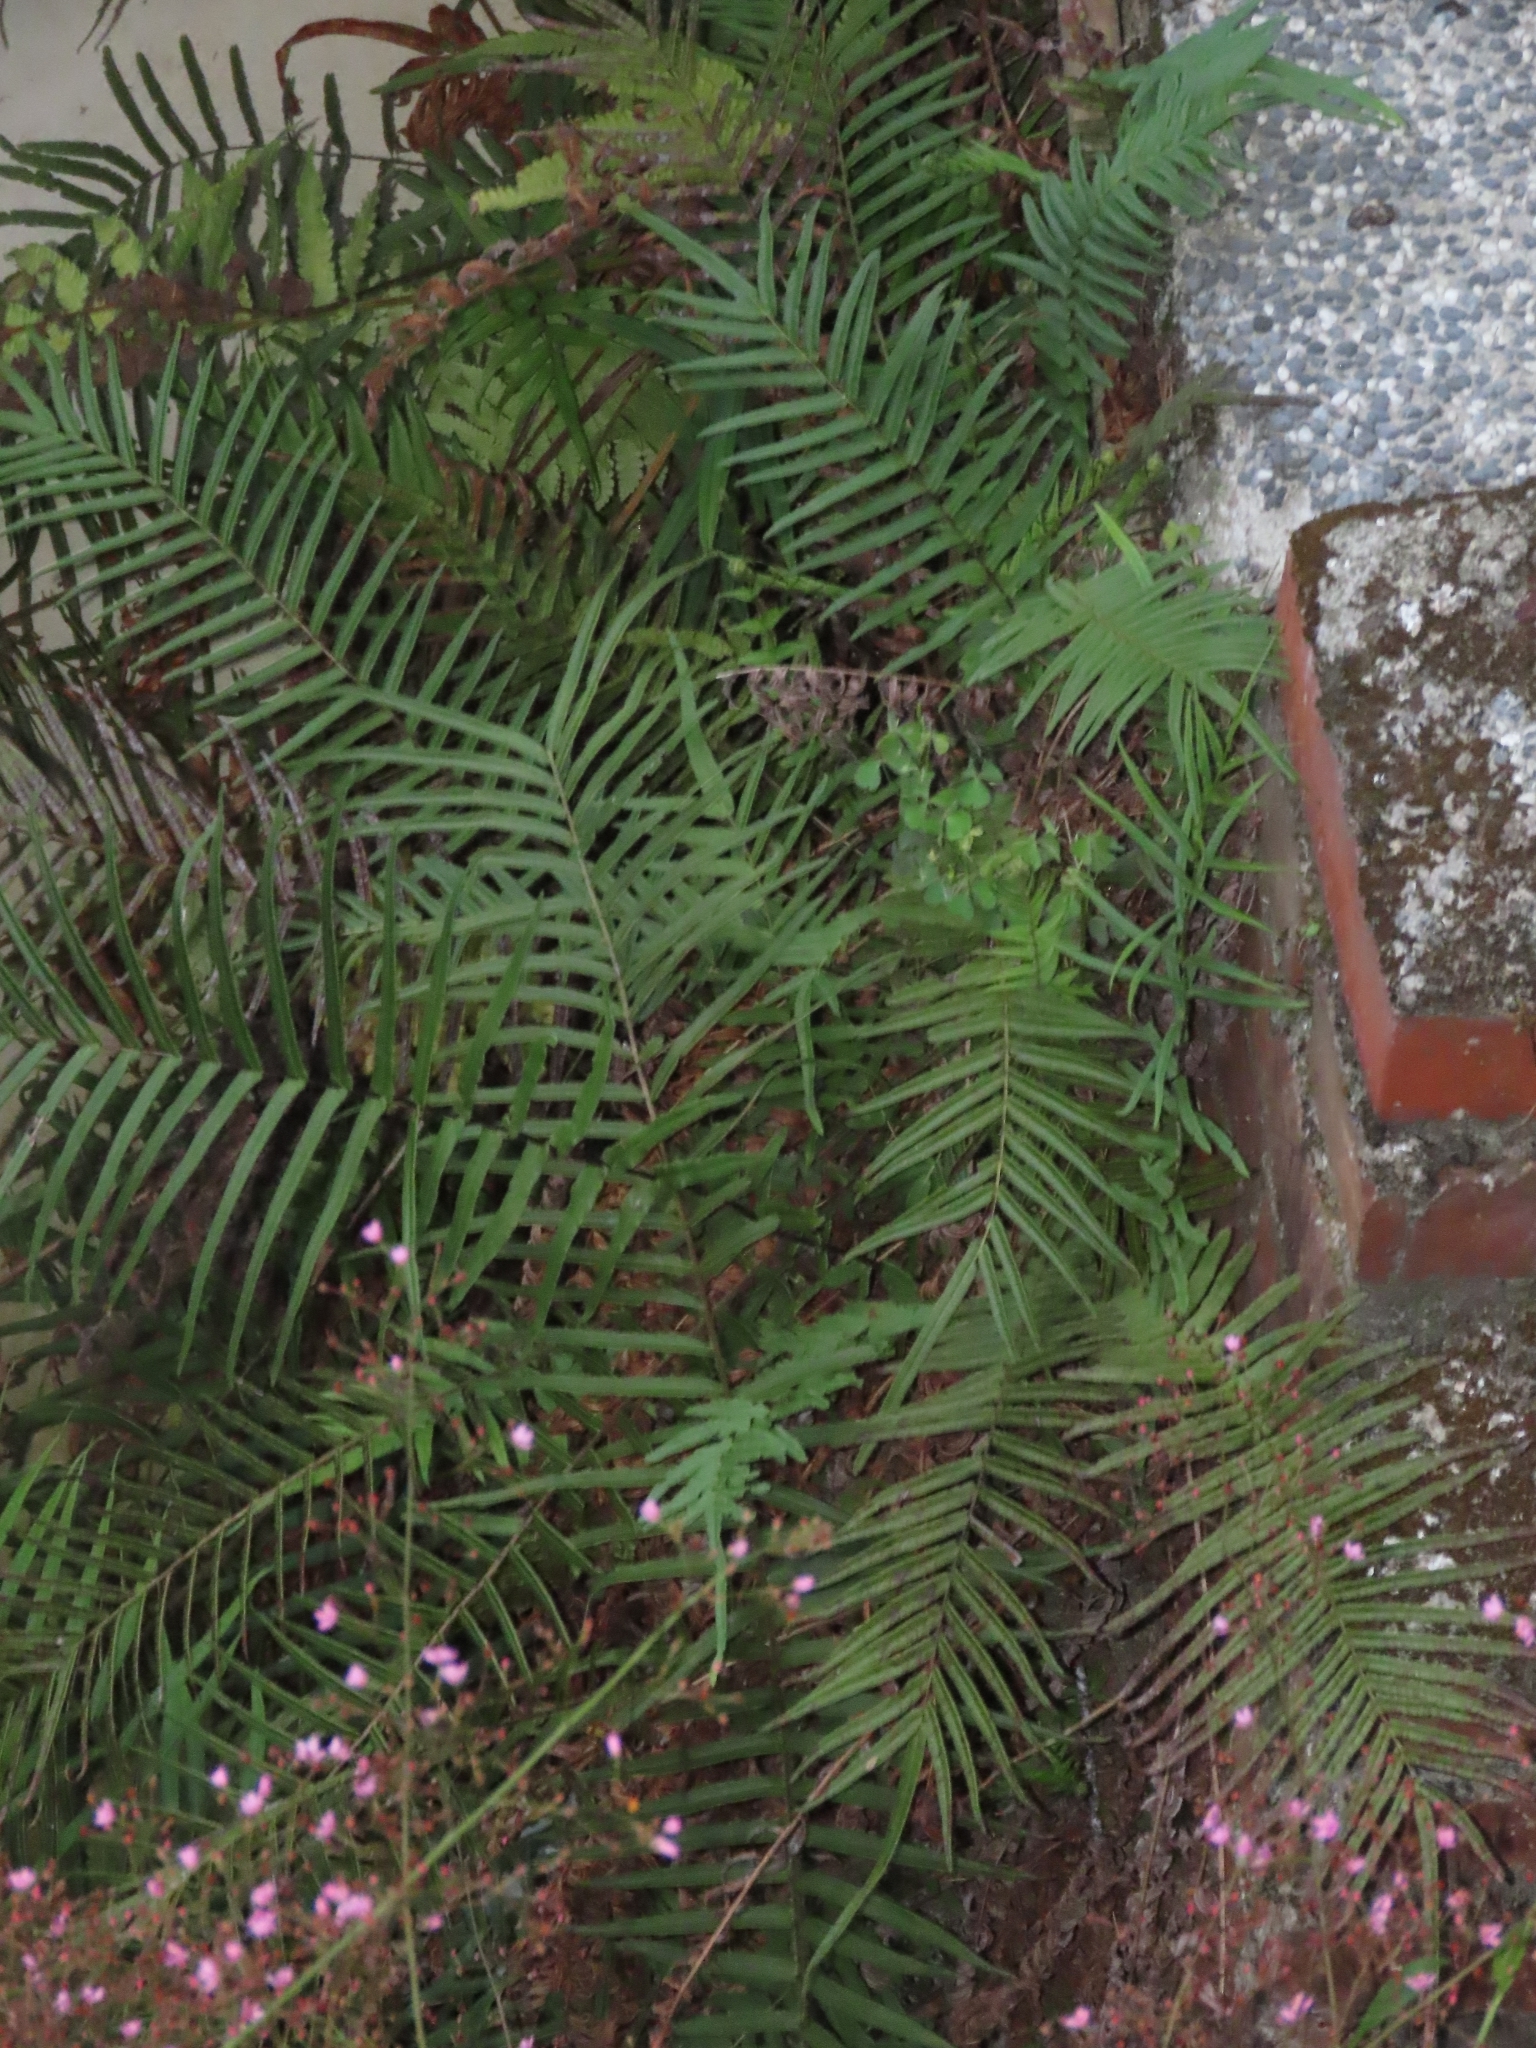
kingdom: Plantae
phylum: Tracheophyta
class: Polypodiopsida
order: Polypodiales
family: Pteridaceae
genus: Pteris
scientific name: Pteris vittata
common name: Ladder brake
